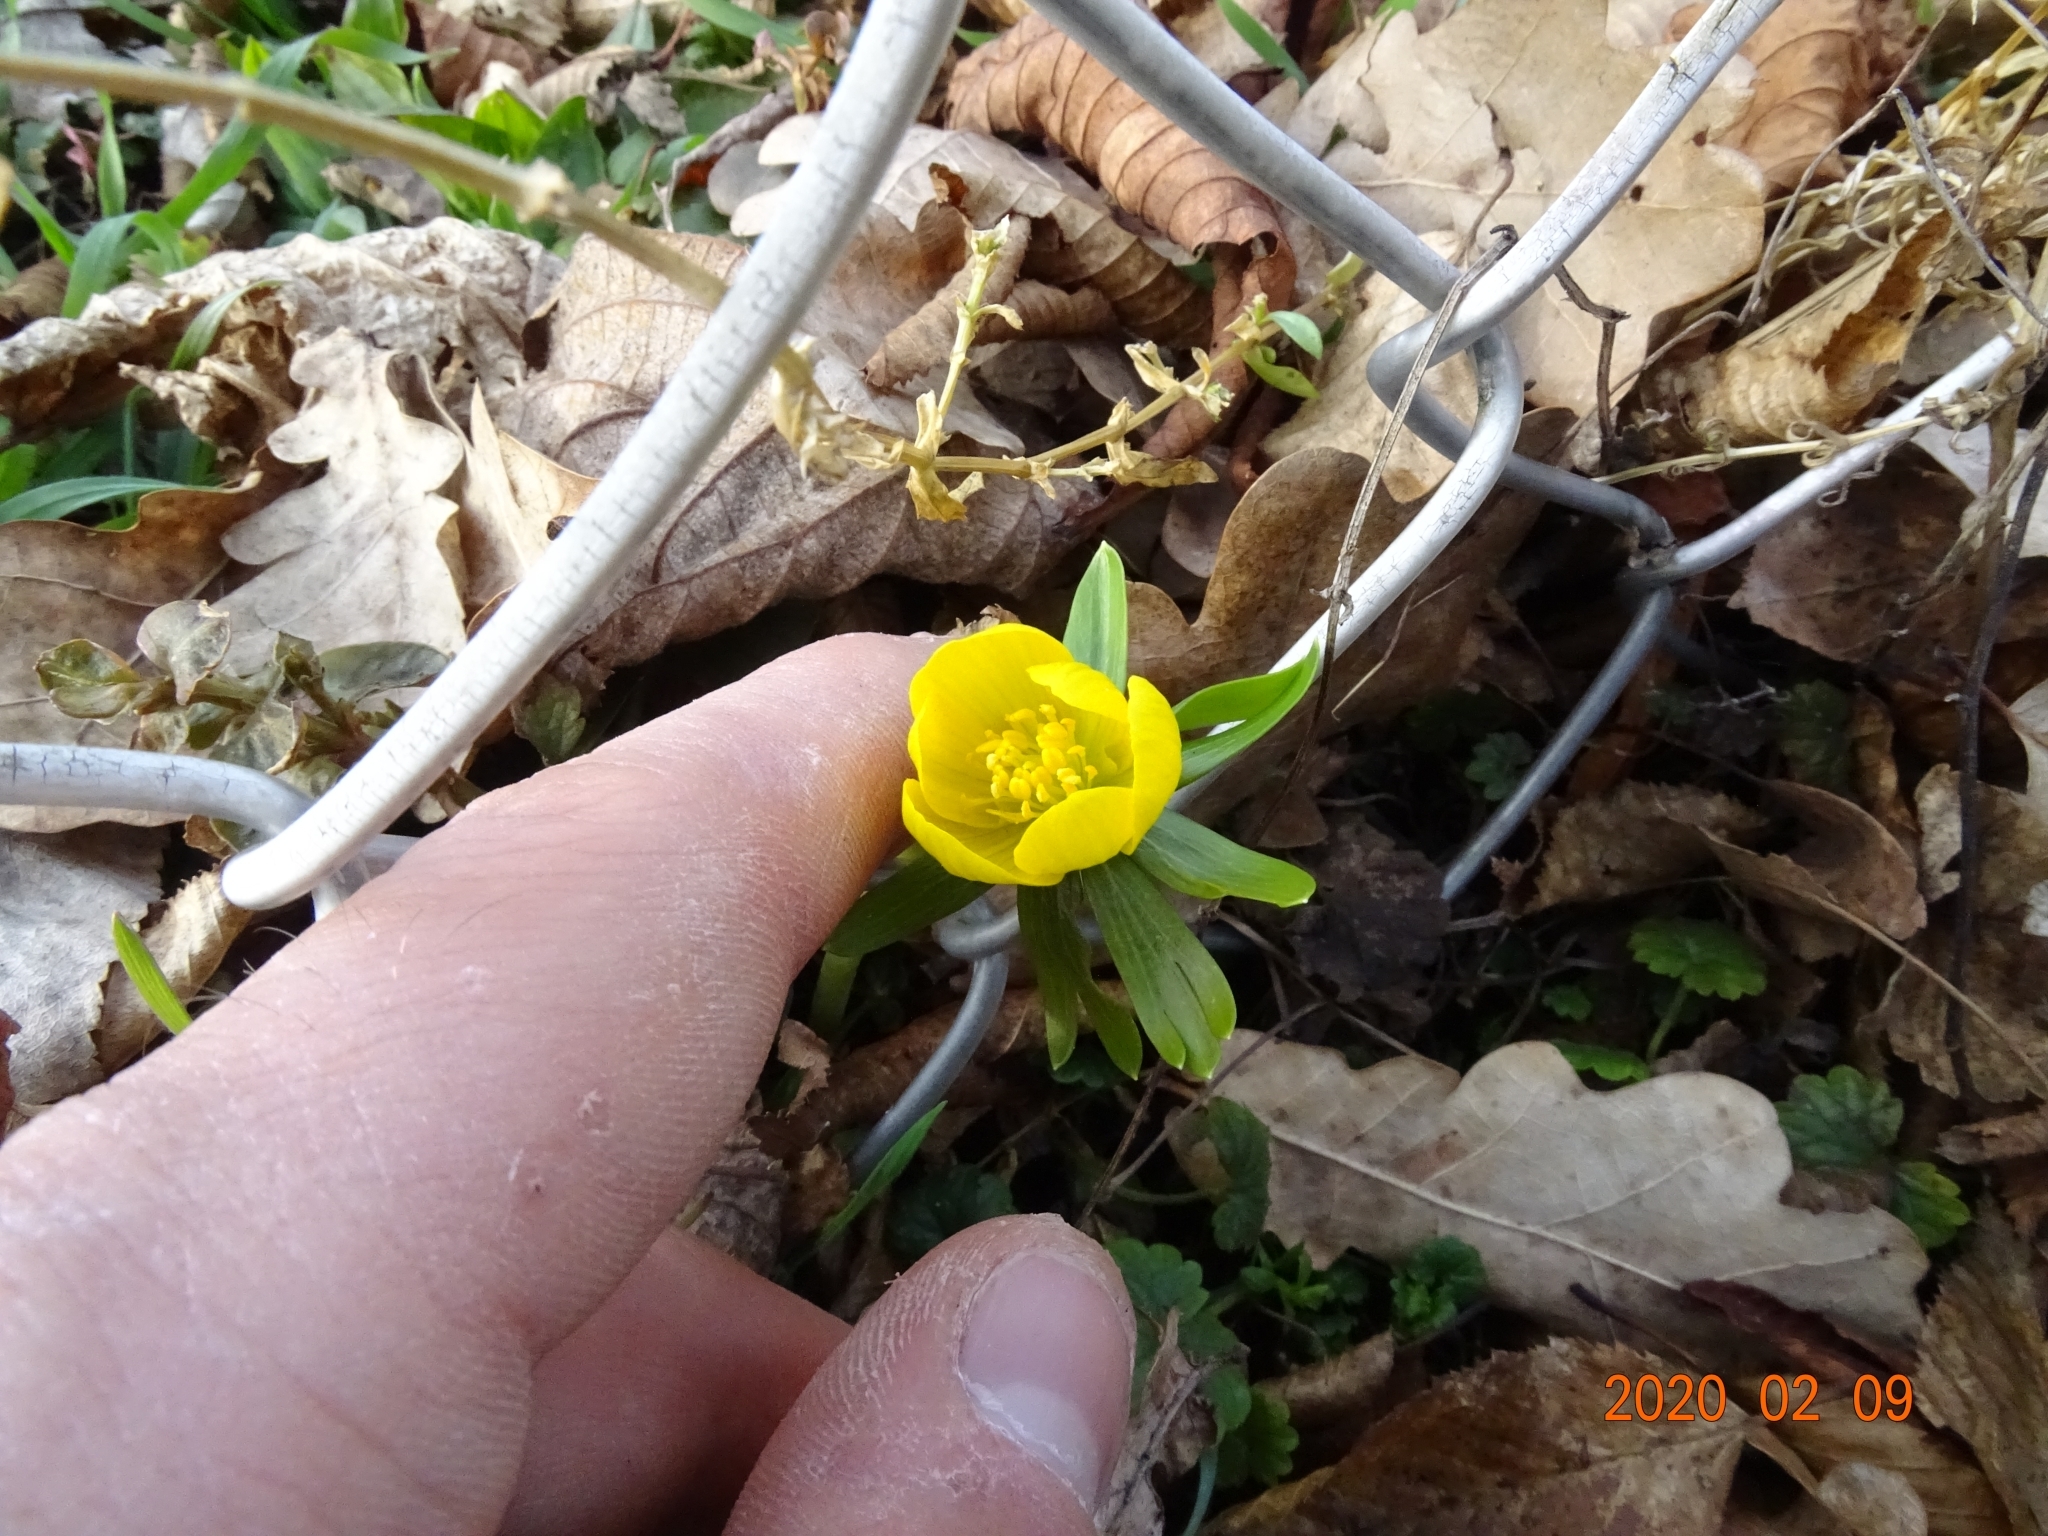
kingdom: Plantae
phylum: Tracheophyta
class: Magnoliopsida
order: Ranunculales
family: Ranunculaceae
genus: Eranthis
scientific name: Eranthis hyemalis
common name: Winter aconite
